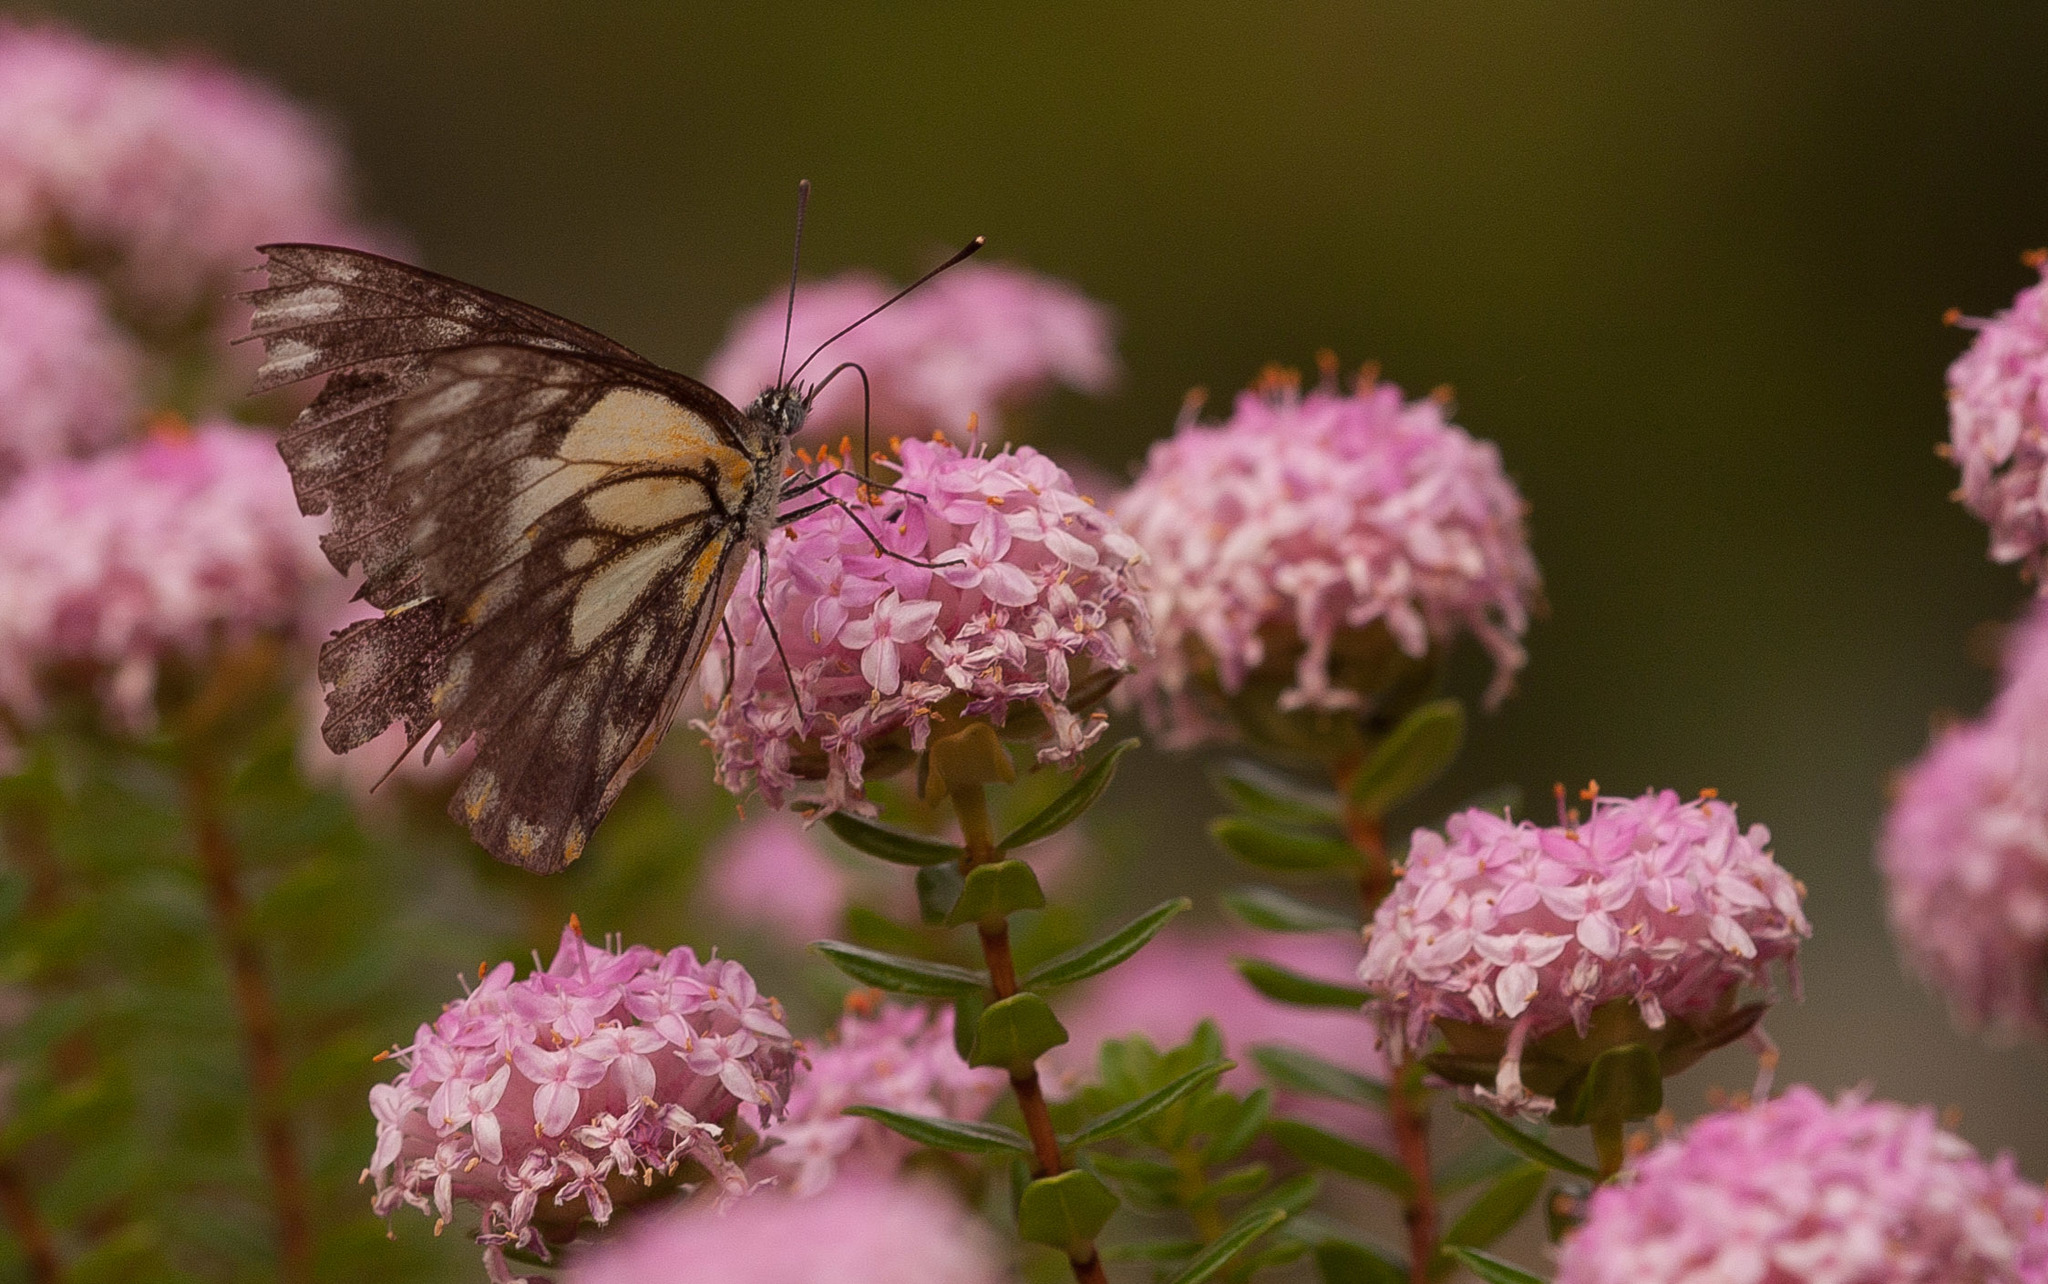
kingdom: Animalia
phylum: Arthropoda
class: Insecta
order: Lepidoptera
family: Pieridae
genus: Belenois
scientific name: Belenois java
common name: Caper white
